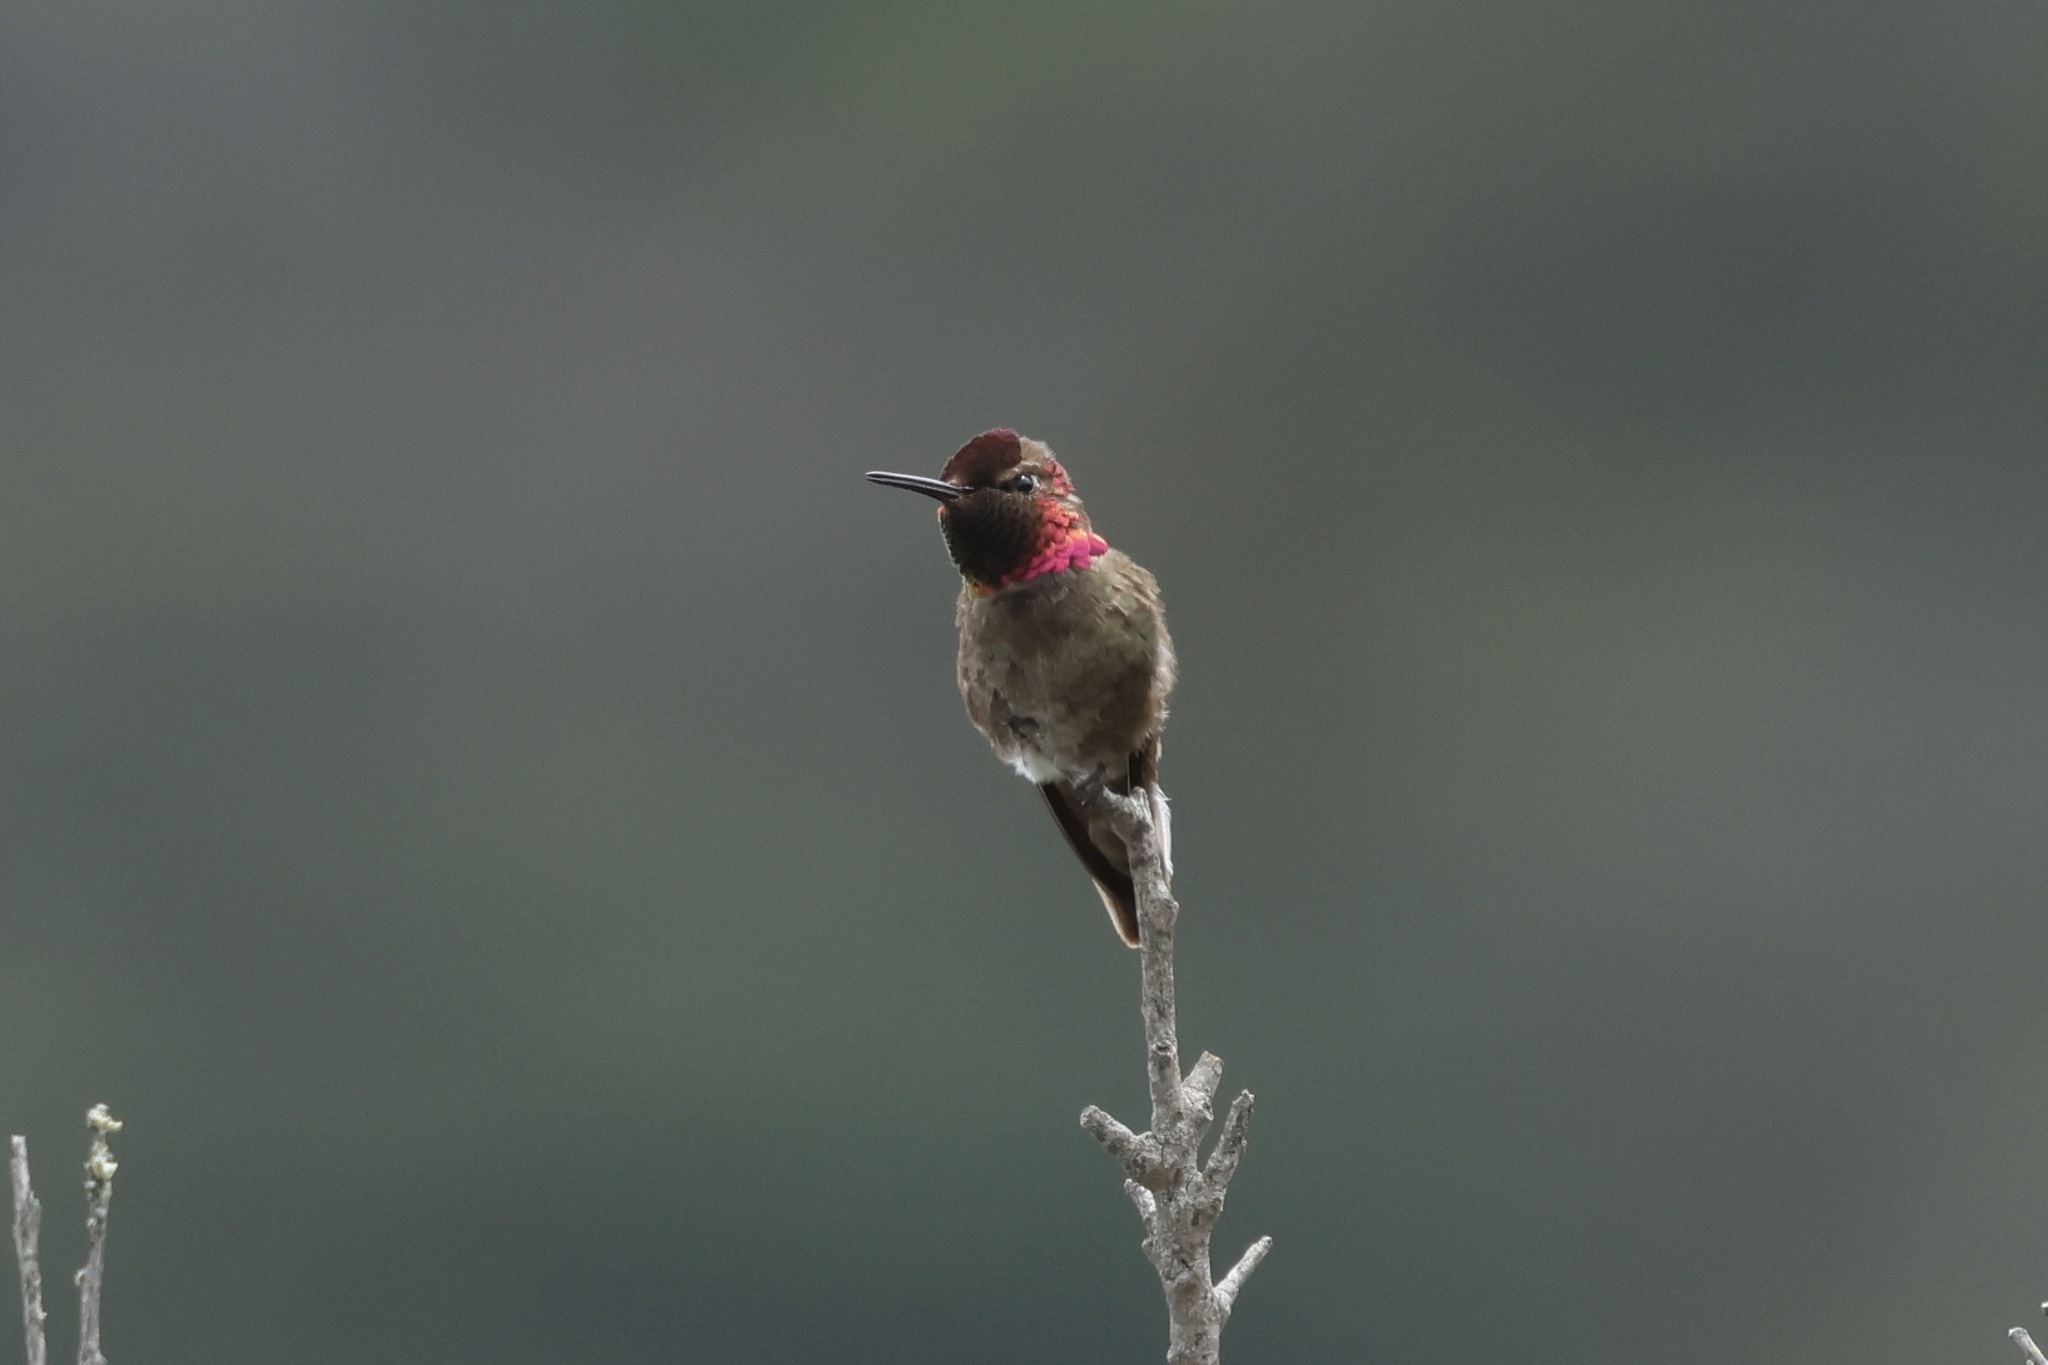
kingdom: Animalia
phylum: Chordata
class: Aves
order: Apodiformes
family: Trochilidae
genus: Calypte
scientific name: Calypte anna
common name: Anna's hummingbird
